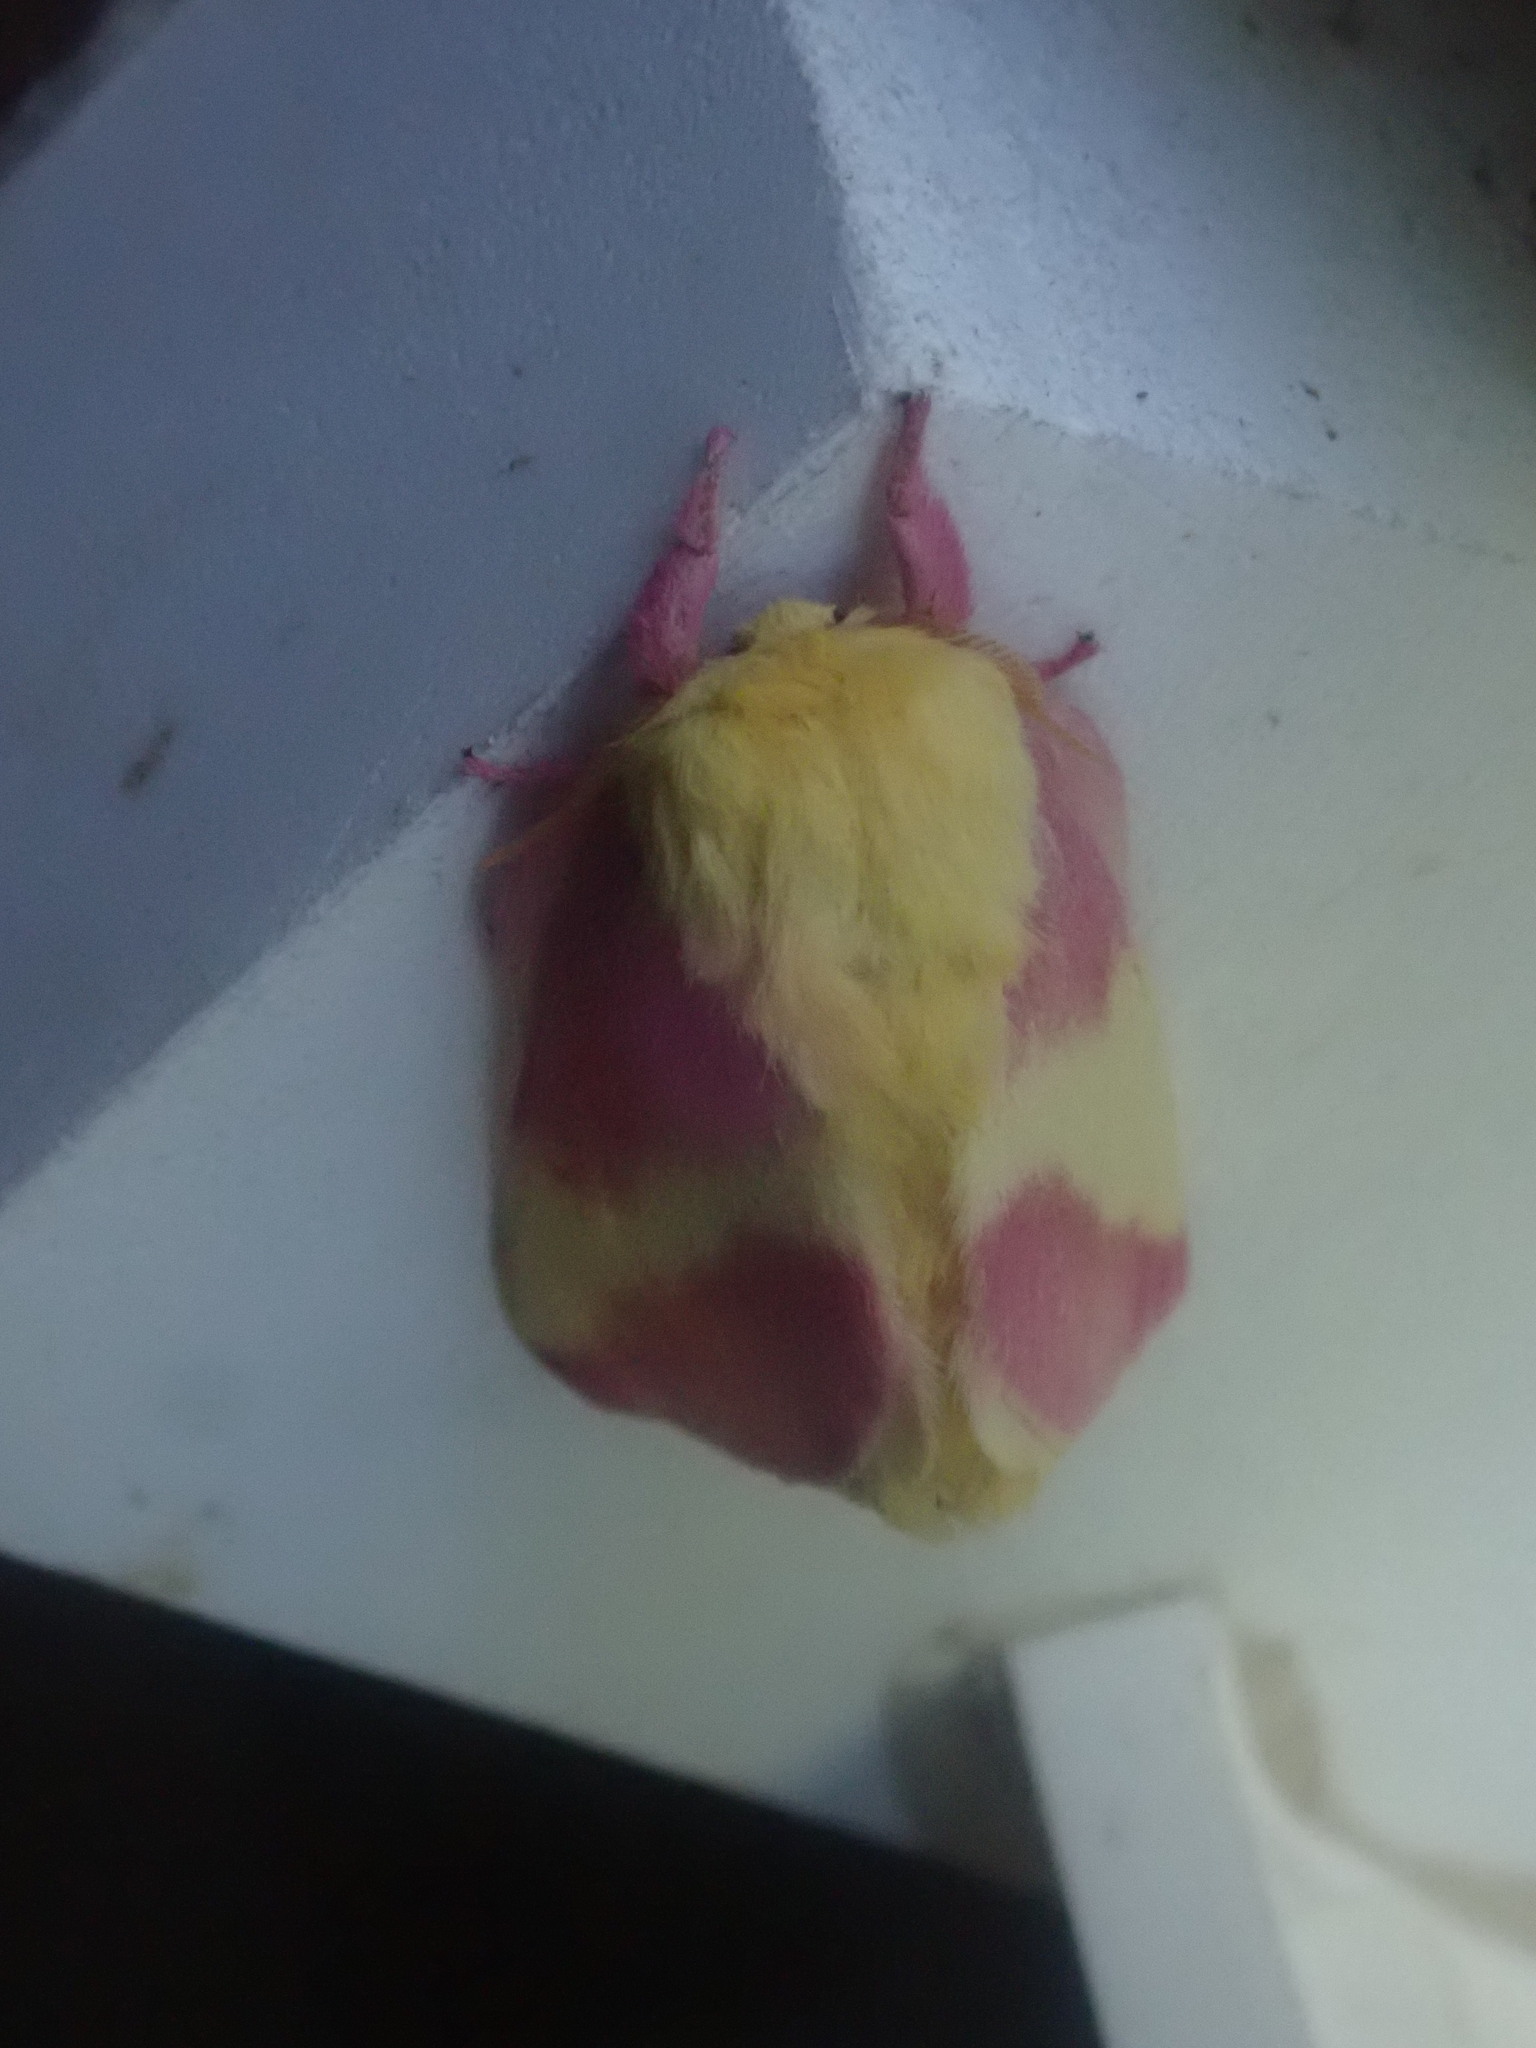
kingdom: Animalia
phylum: Arthropoda
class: Insecta
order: Lepidoptera
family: Saturniidae
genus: Dryocampa
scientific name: Dryocampa rubicunda
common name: Rosy maple moth
